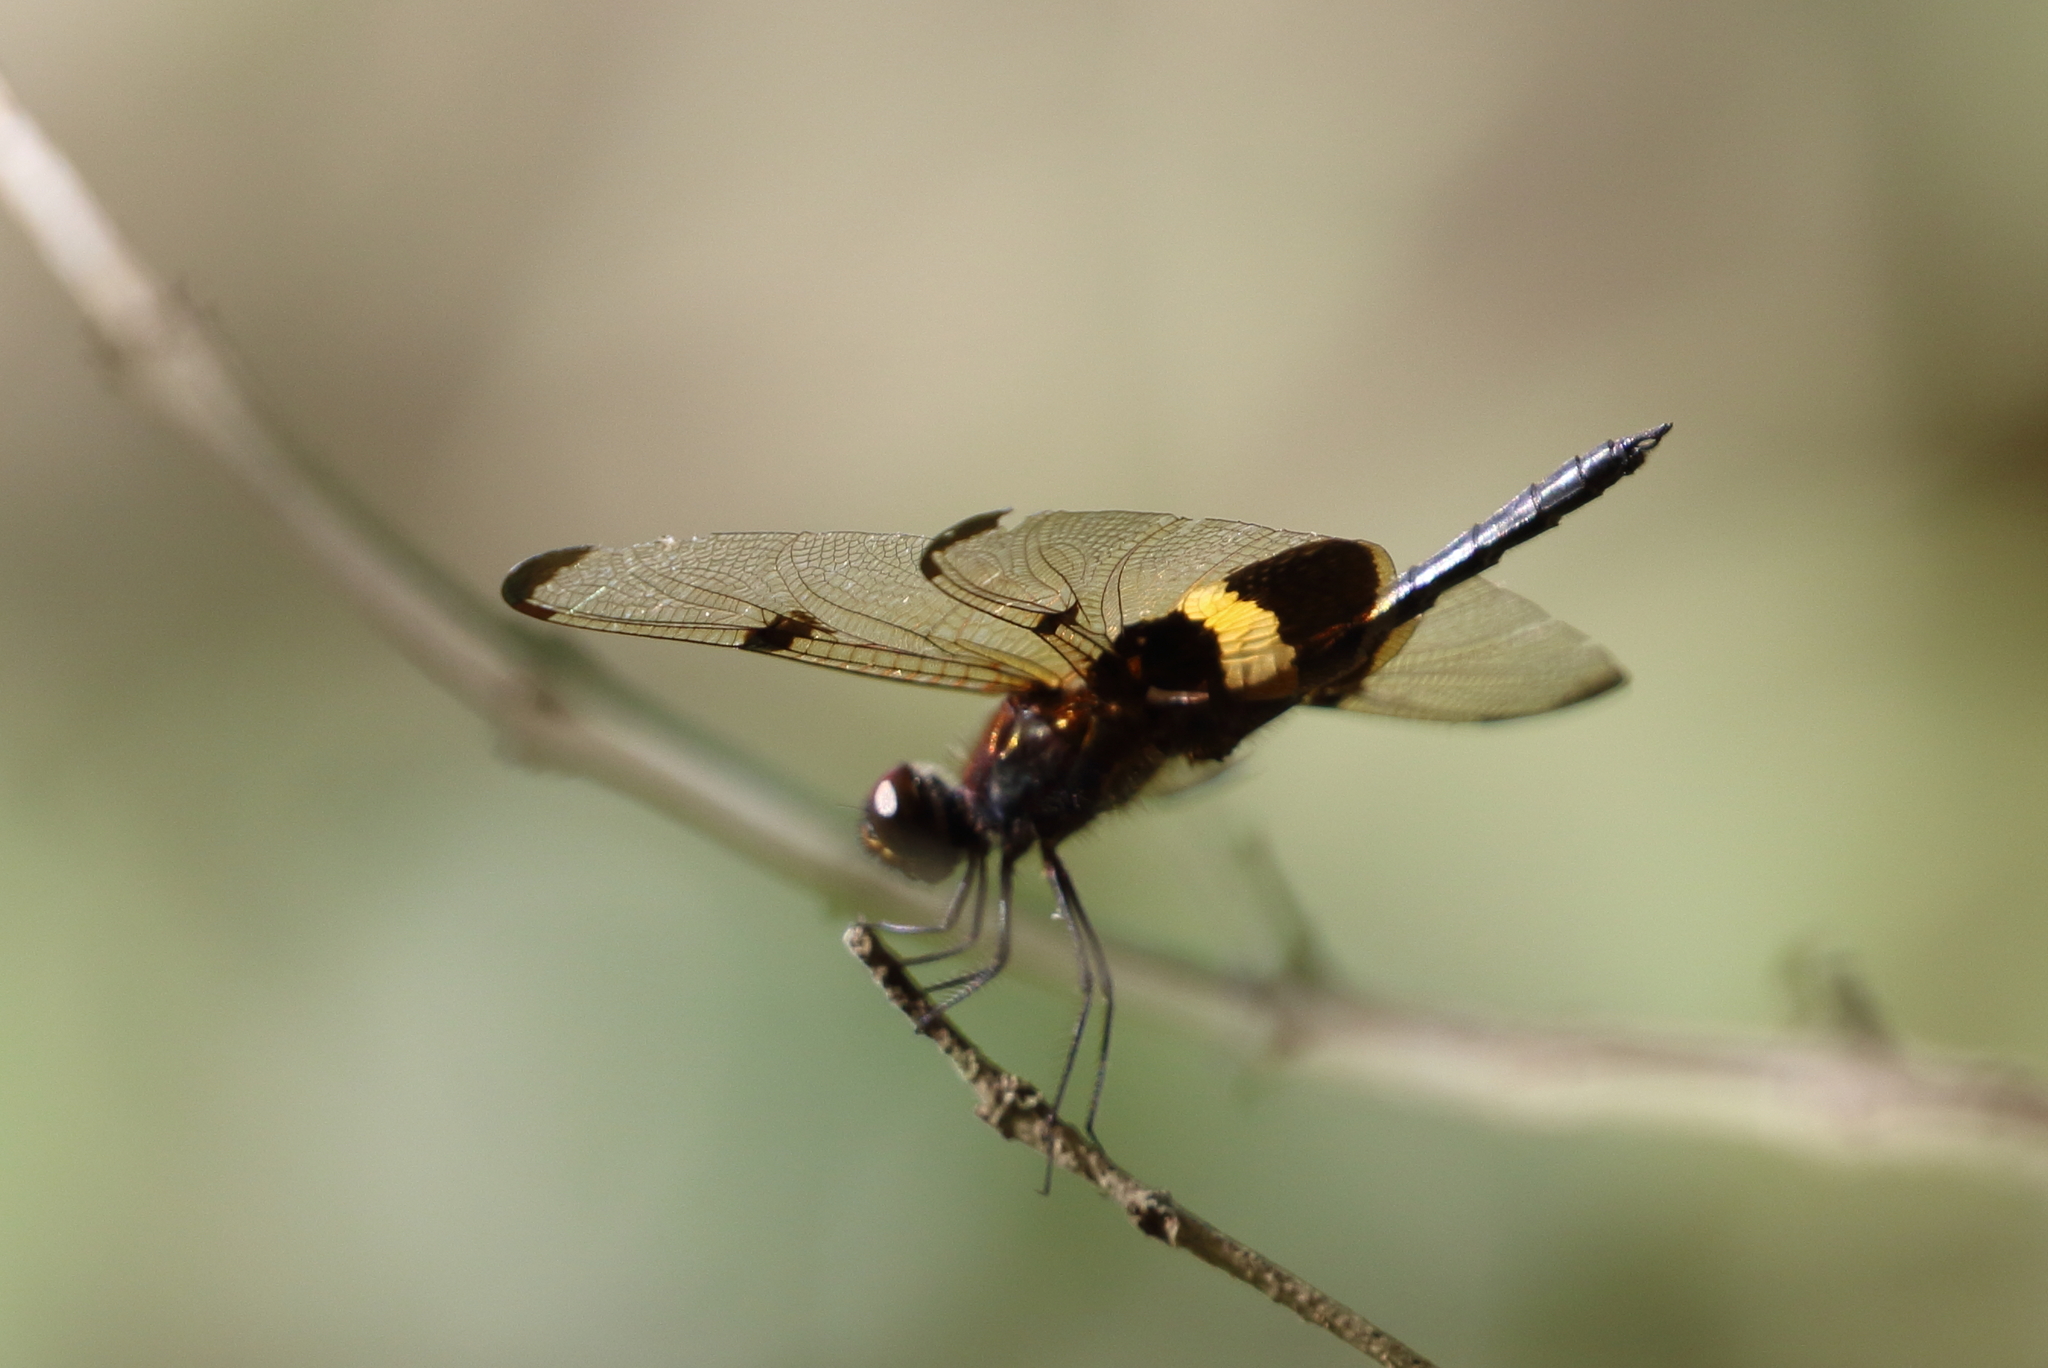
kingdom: Animalia
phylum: Arthropoda
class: Insecta
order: Odonata
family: Libellulidae
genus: Rhyothemis
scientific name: Rhyothemis phyllis
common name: Yellow-barred flutterer
